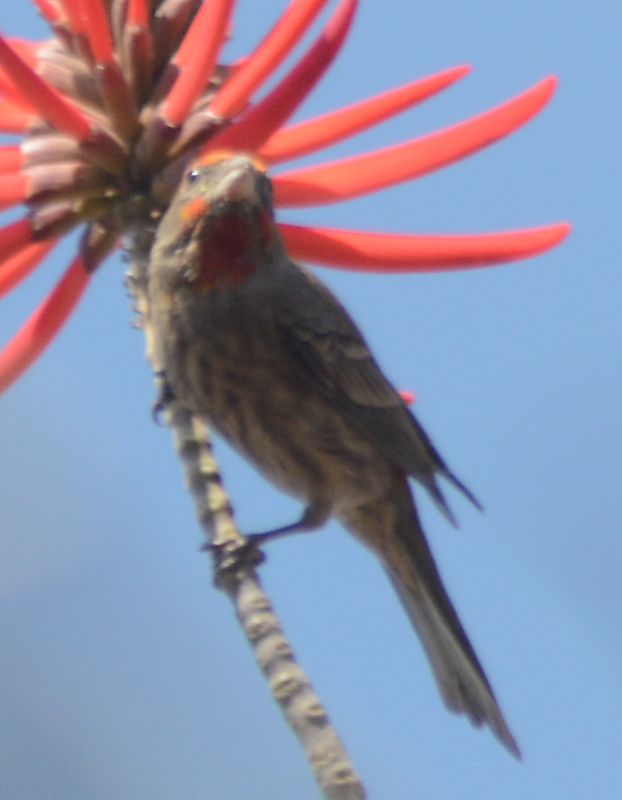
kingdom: Animalia
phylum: Chordata
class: Aves
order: Passeriformes
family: Fringillidae
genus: Haemorhous
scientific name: Haemorhous mexicanus
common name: House finch
